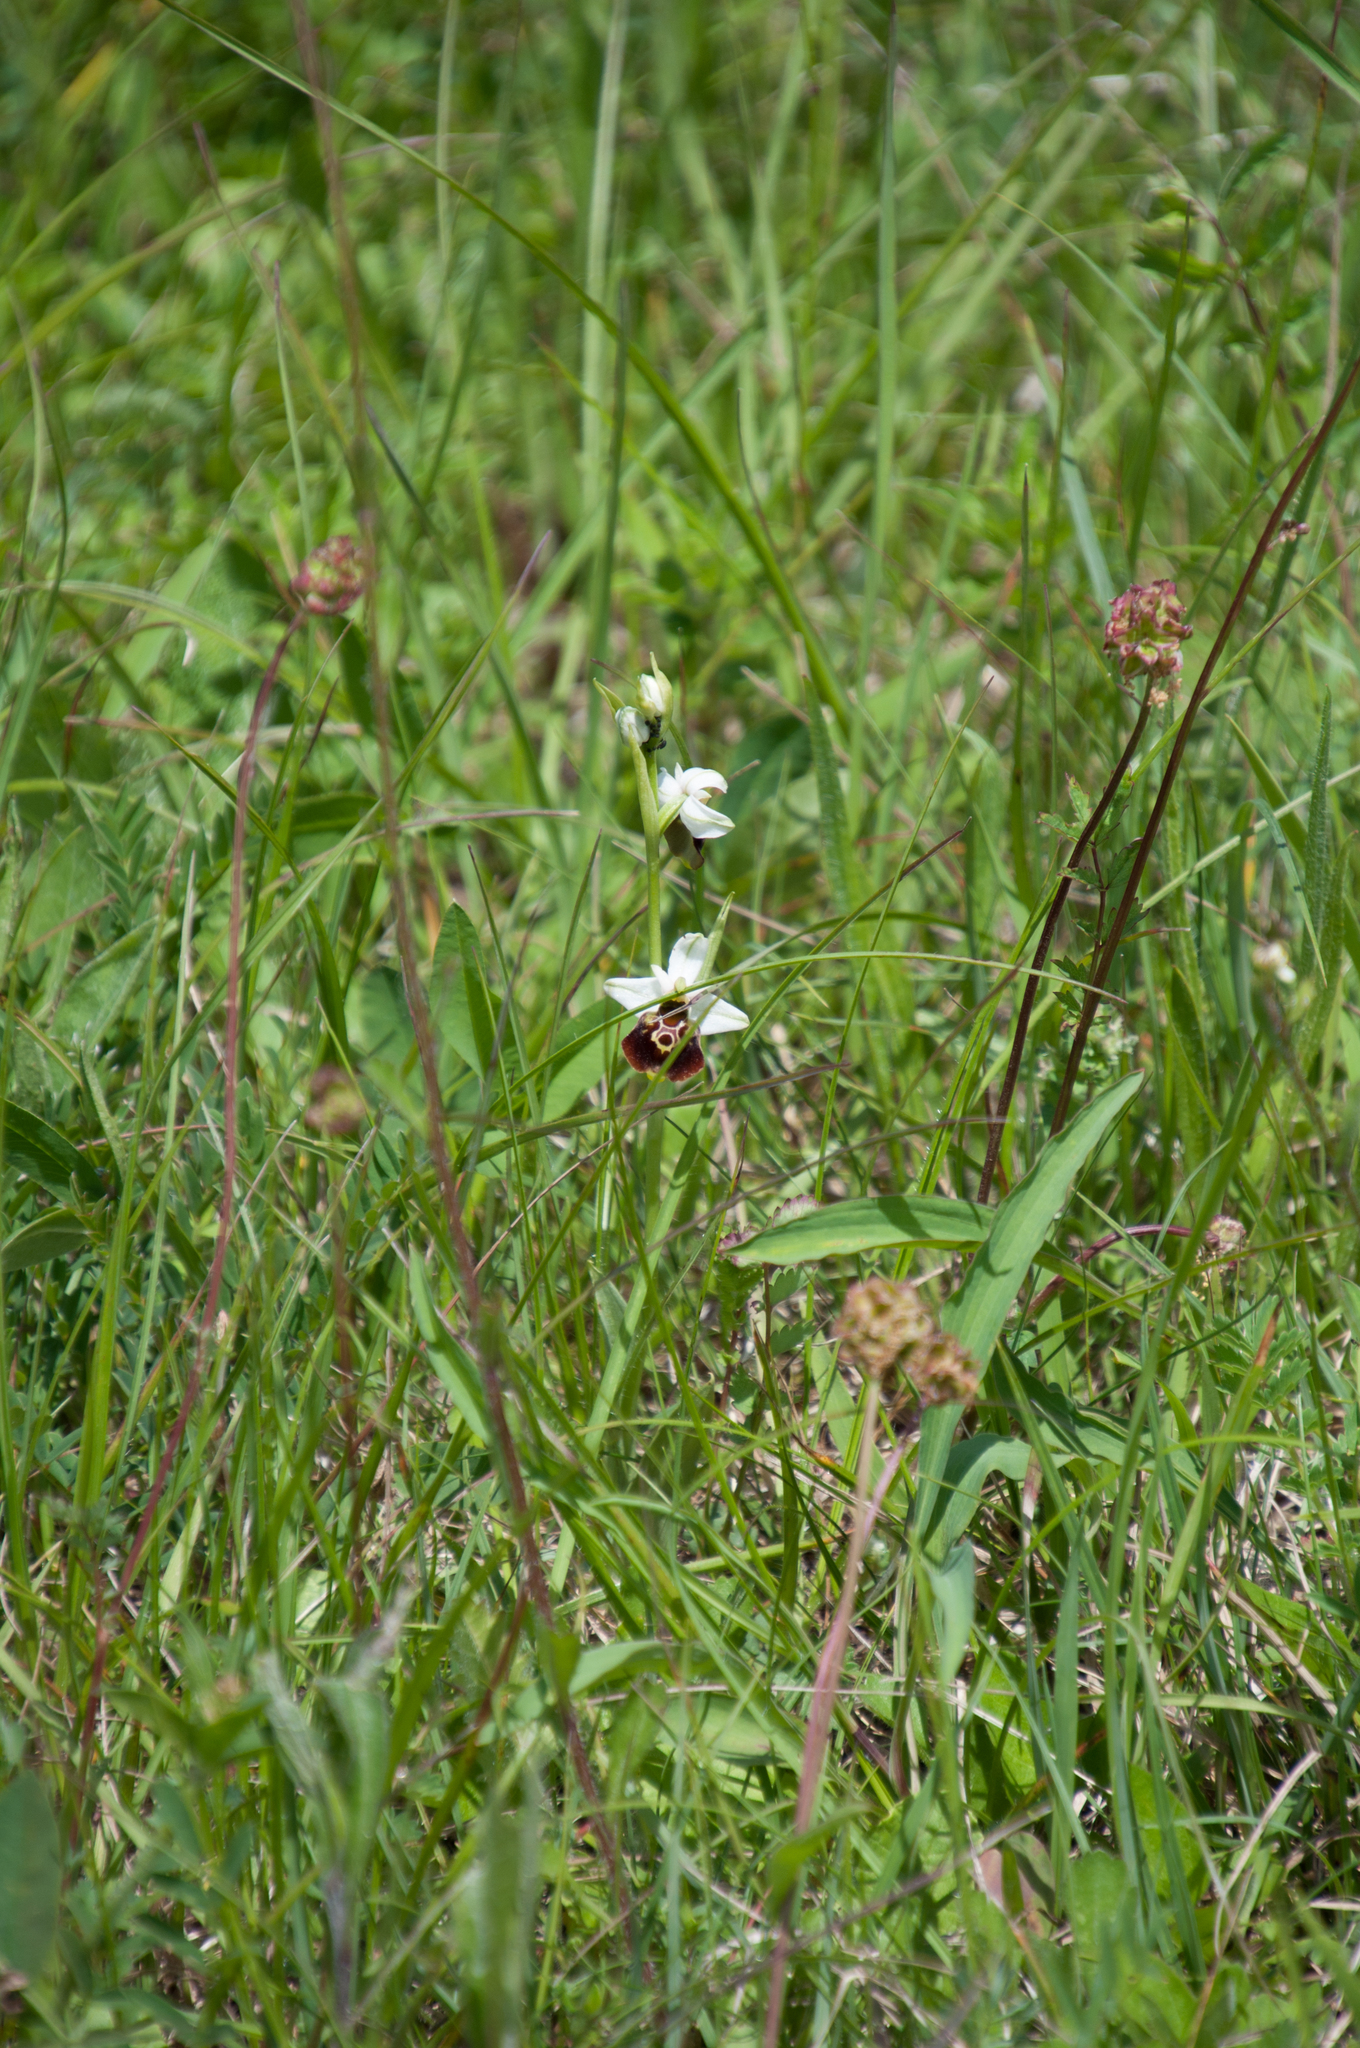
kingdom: Plantae
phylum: Tracheophyta
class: Liliopsida
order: Asparagales
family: Orchidaceae
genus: Ophrys
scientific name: Ophrys holosericea
